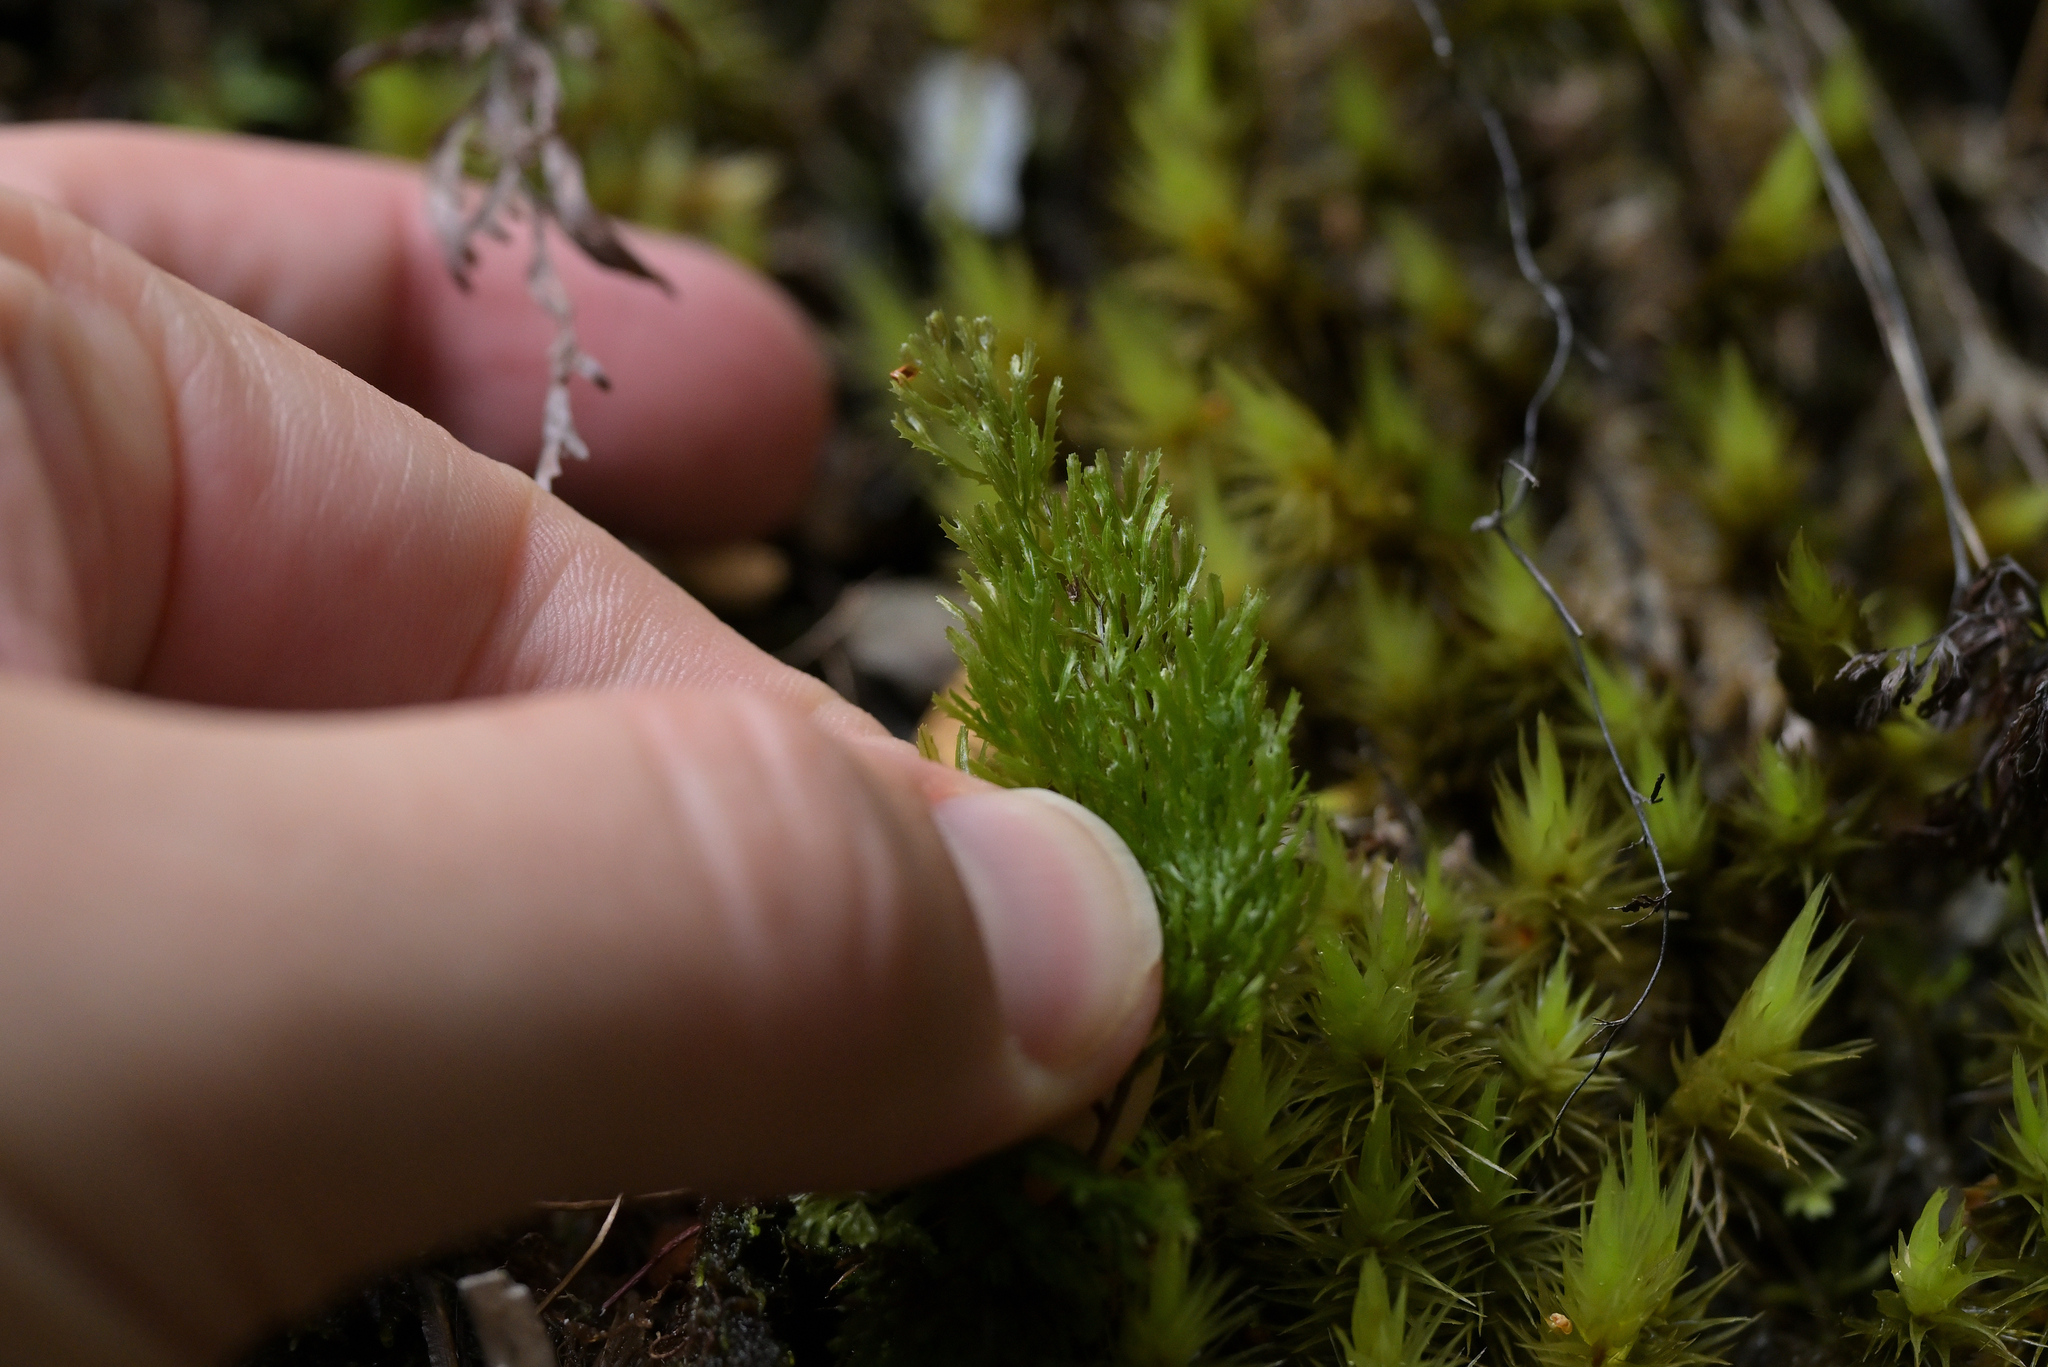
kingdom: Plantae
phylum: Tracheophyta
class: Polypodiopsida
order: Hymenophyllales
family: Hymenophyllaceae
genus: Hymenophyllum
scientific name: Hymenophyllum multifidum
